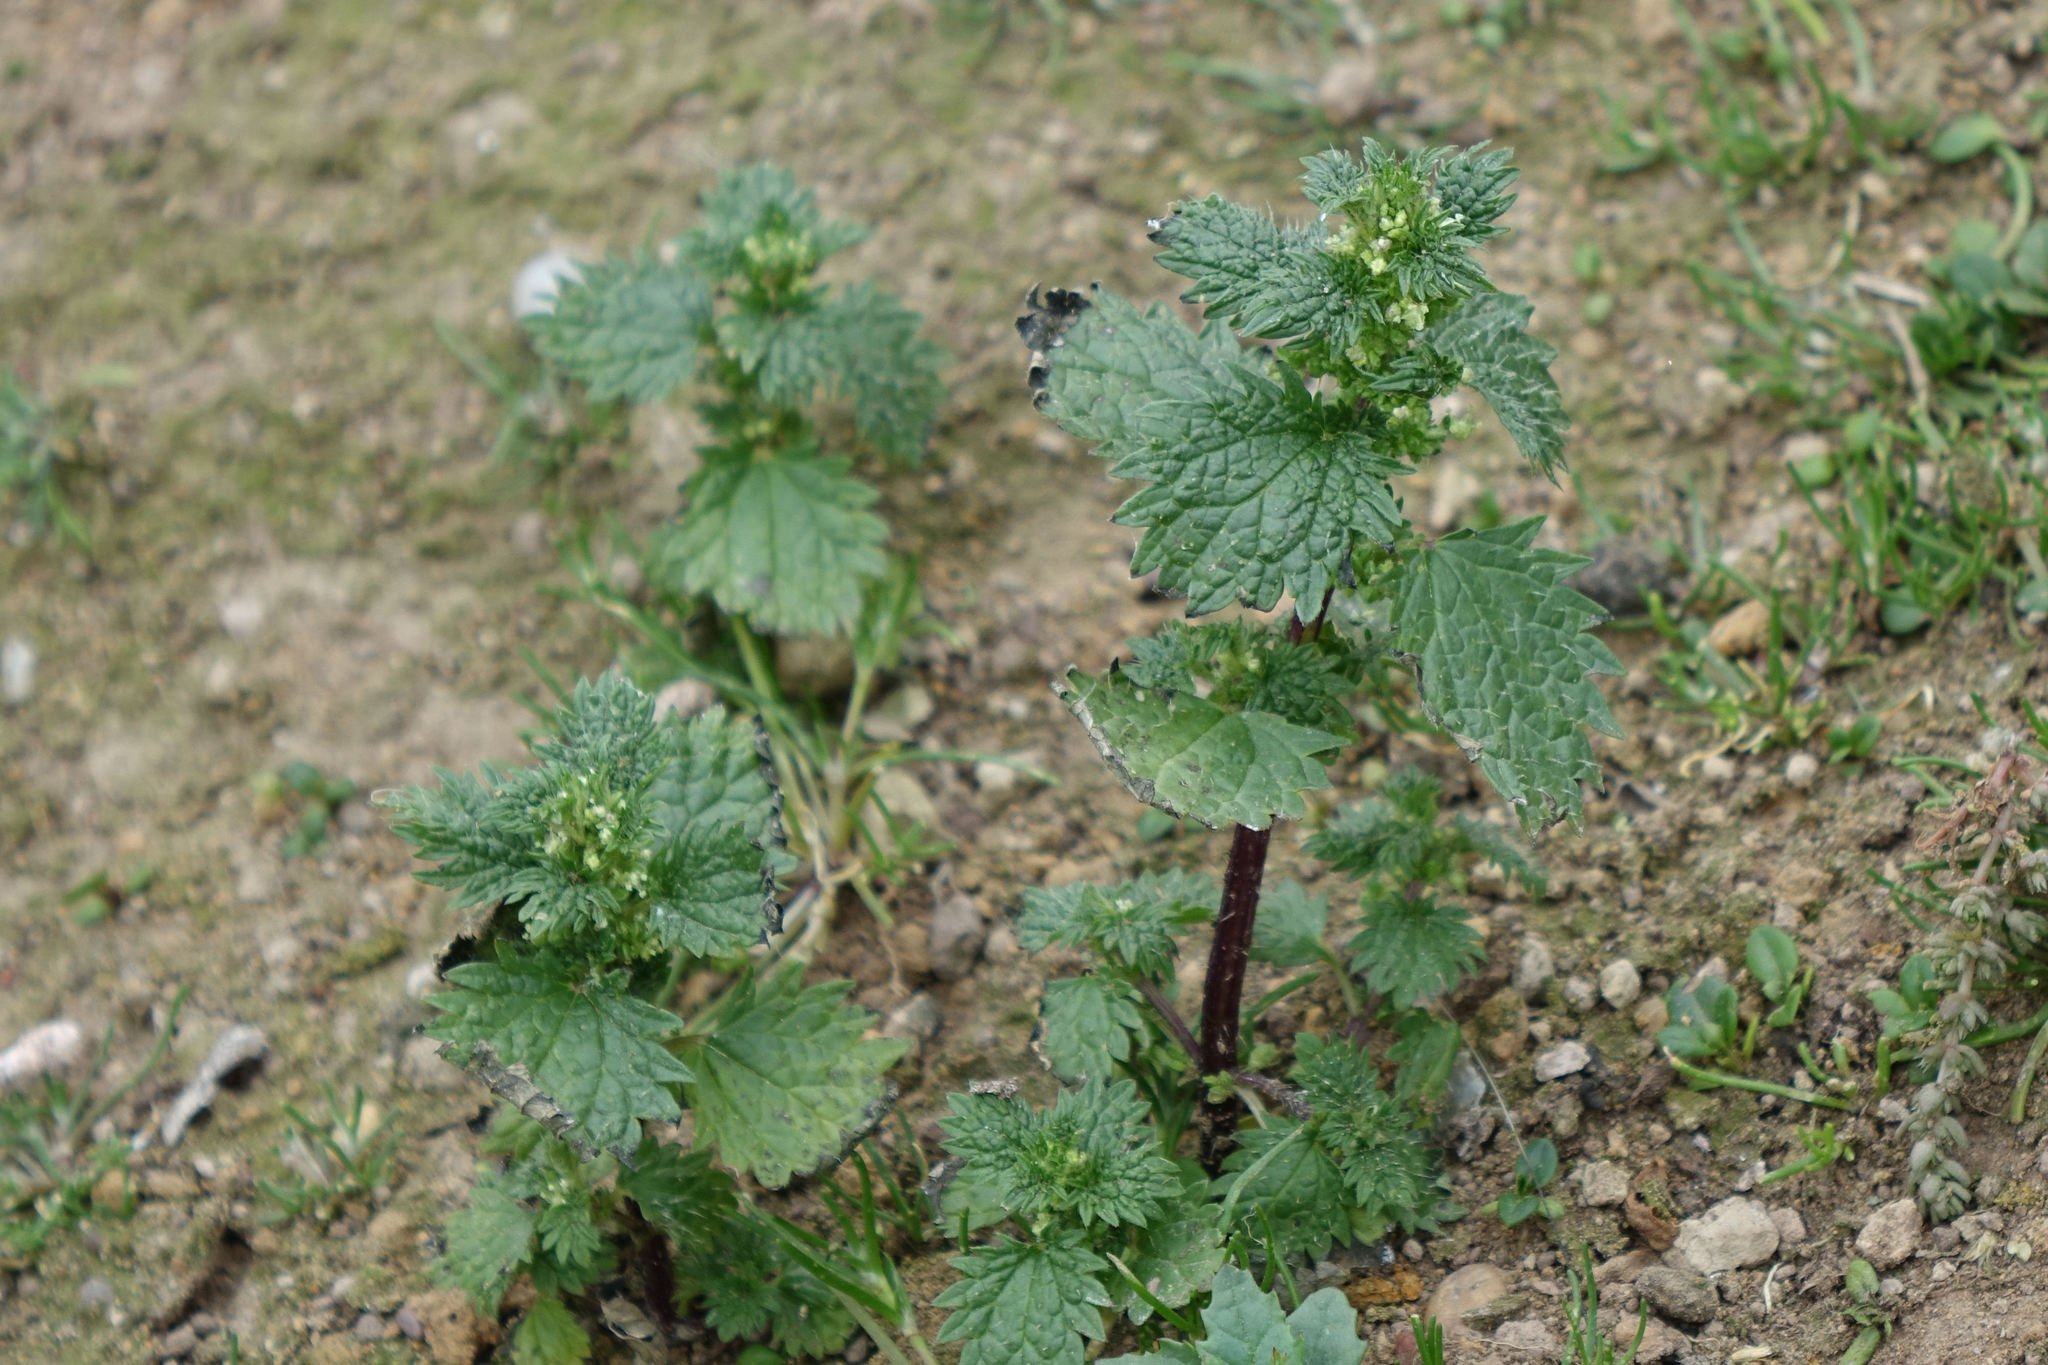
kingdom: Plantae
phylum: Tracheophyta
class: Magnoliopsida
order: Rosales
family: Urticaceae
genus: Urtica
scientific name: Urtica urens
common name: Dwarf nettle
